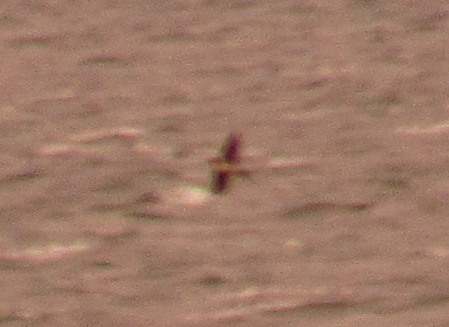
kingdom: Animalia
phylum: Chordata
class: Aves
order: Passeriformes
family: Hirundinidae
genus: Hirundo
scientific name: Hirundo rustica
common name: Barn swallow
